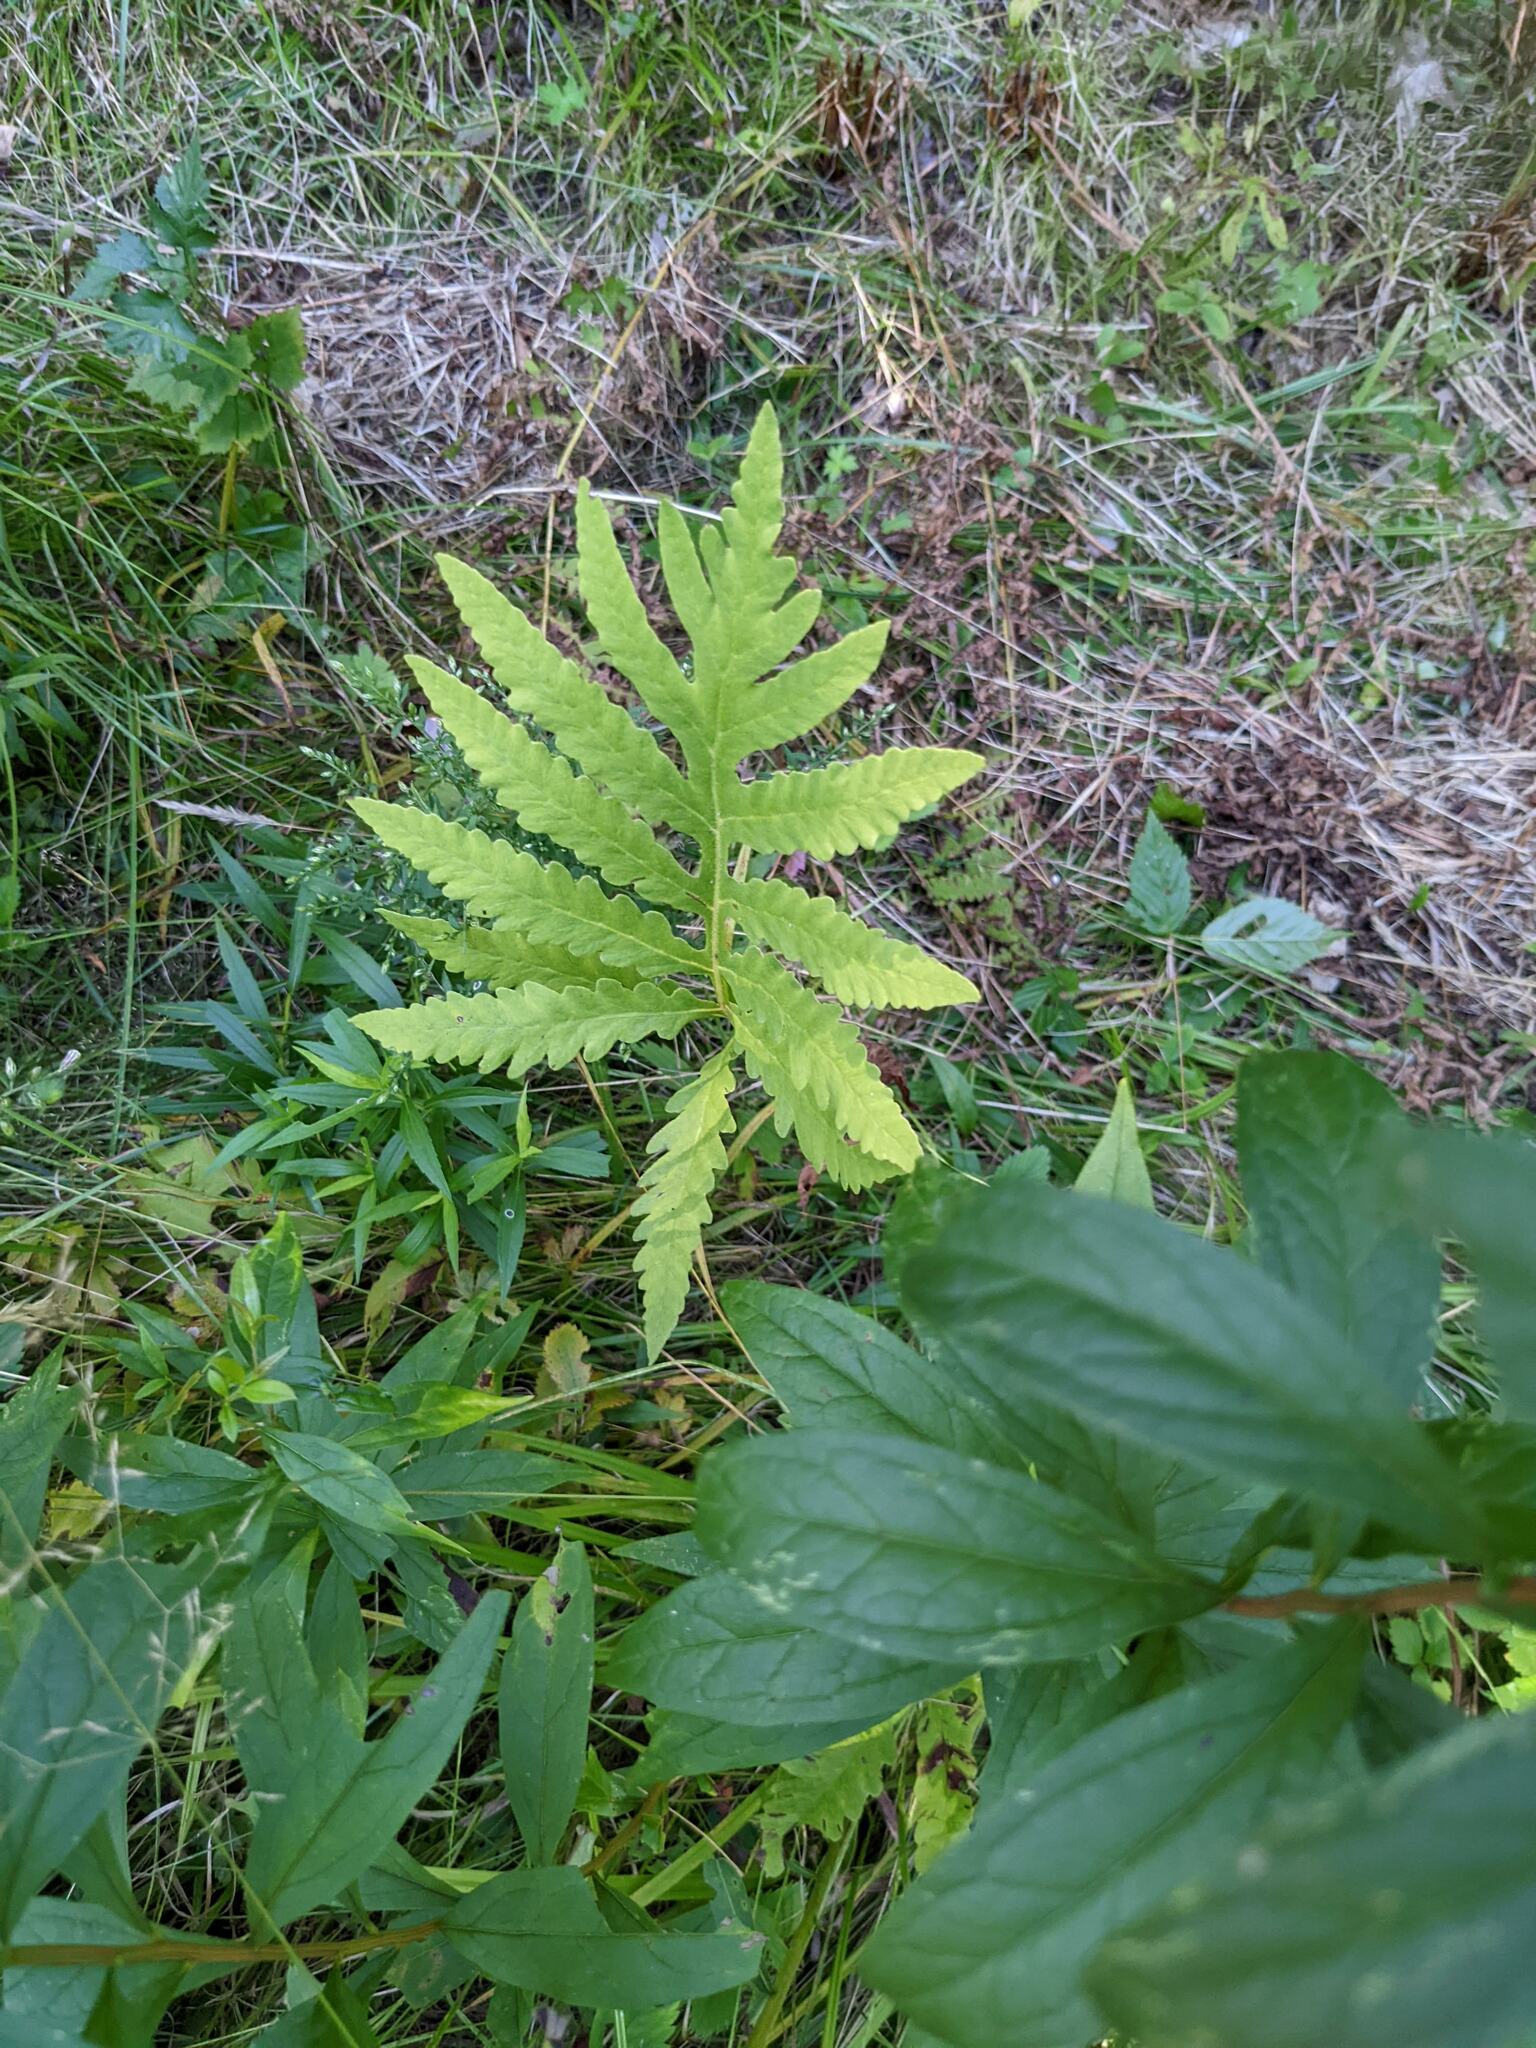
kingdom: Plantae
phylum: Tracheophyta
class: Polypodiopsida
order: Polypodiales
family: Onocleaceae
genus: Onoclea
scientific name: Onoclea sensibilis
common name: Sensitive fern
